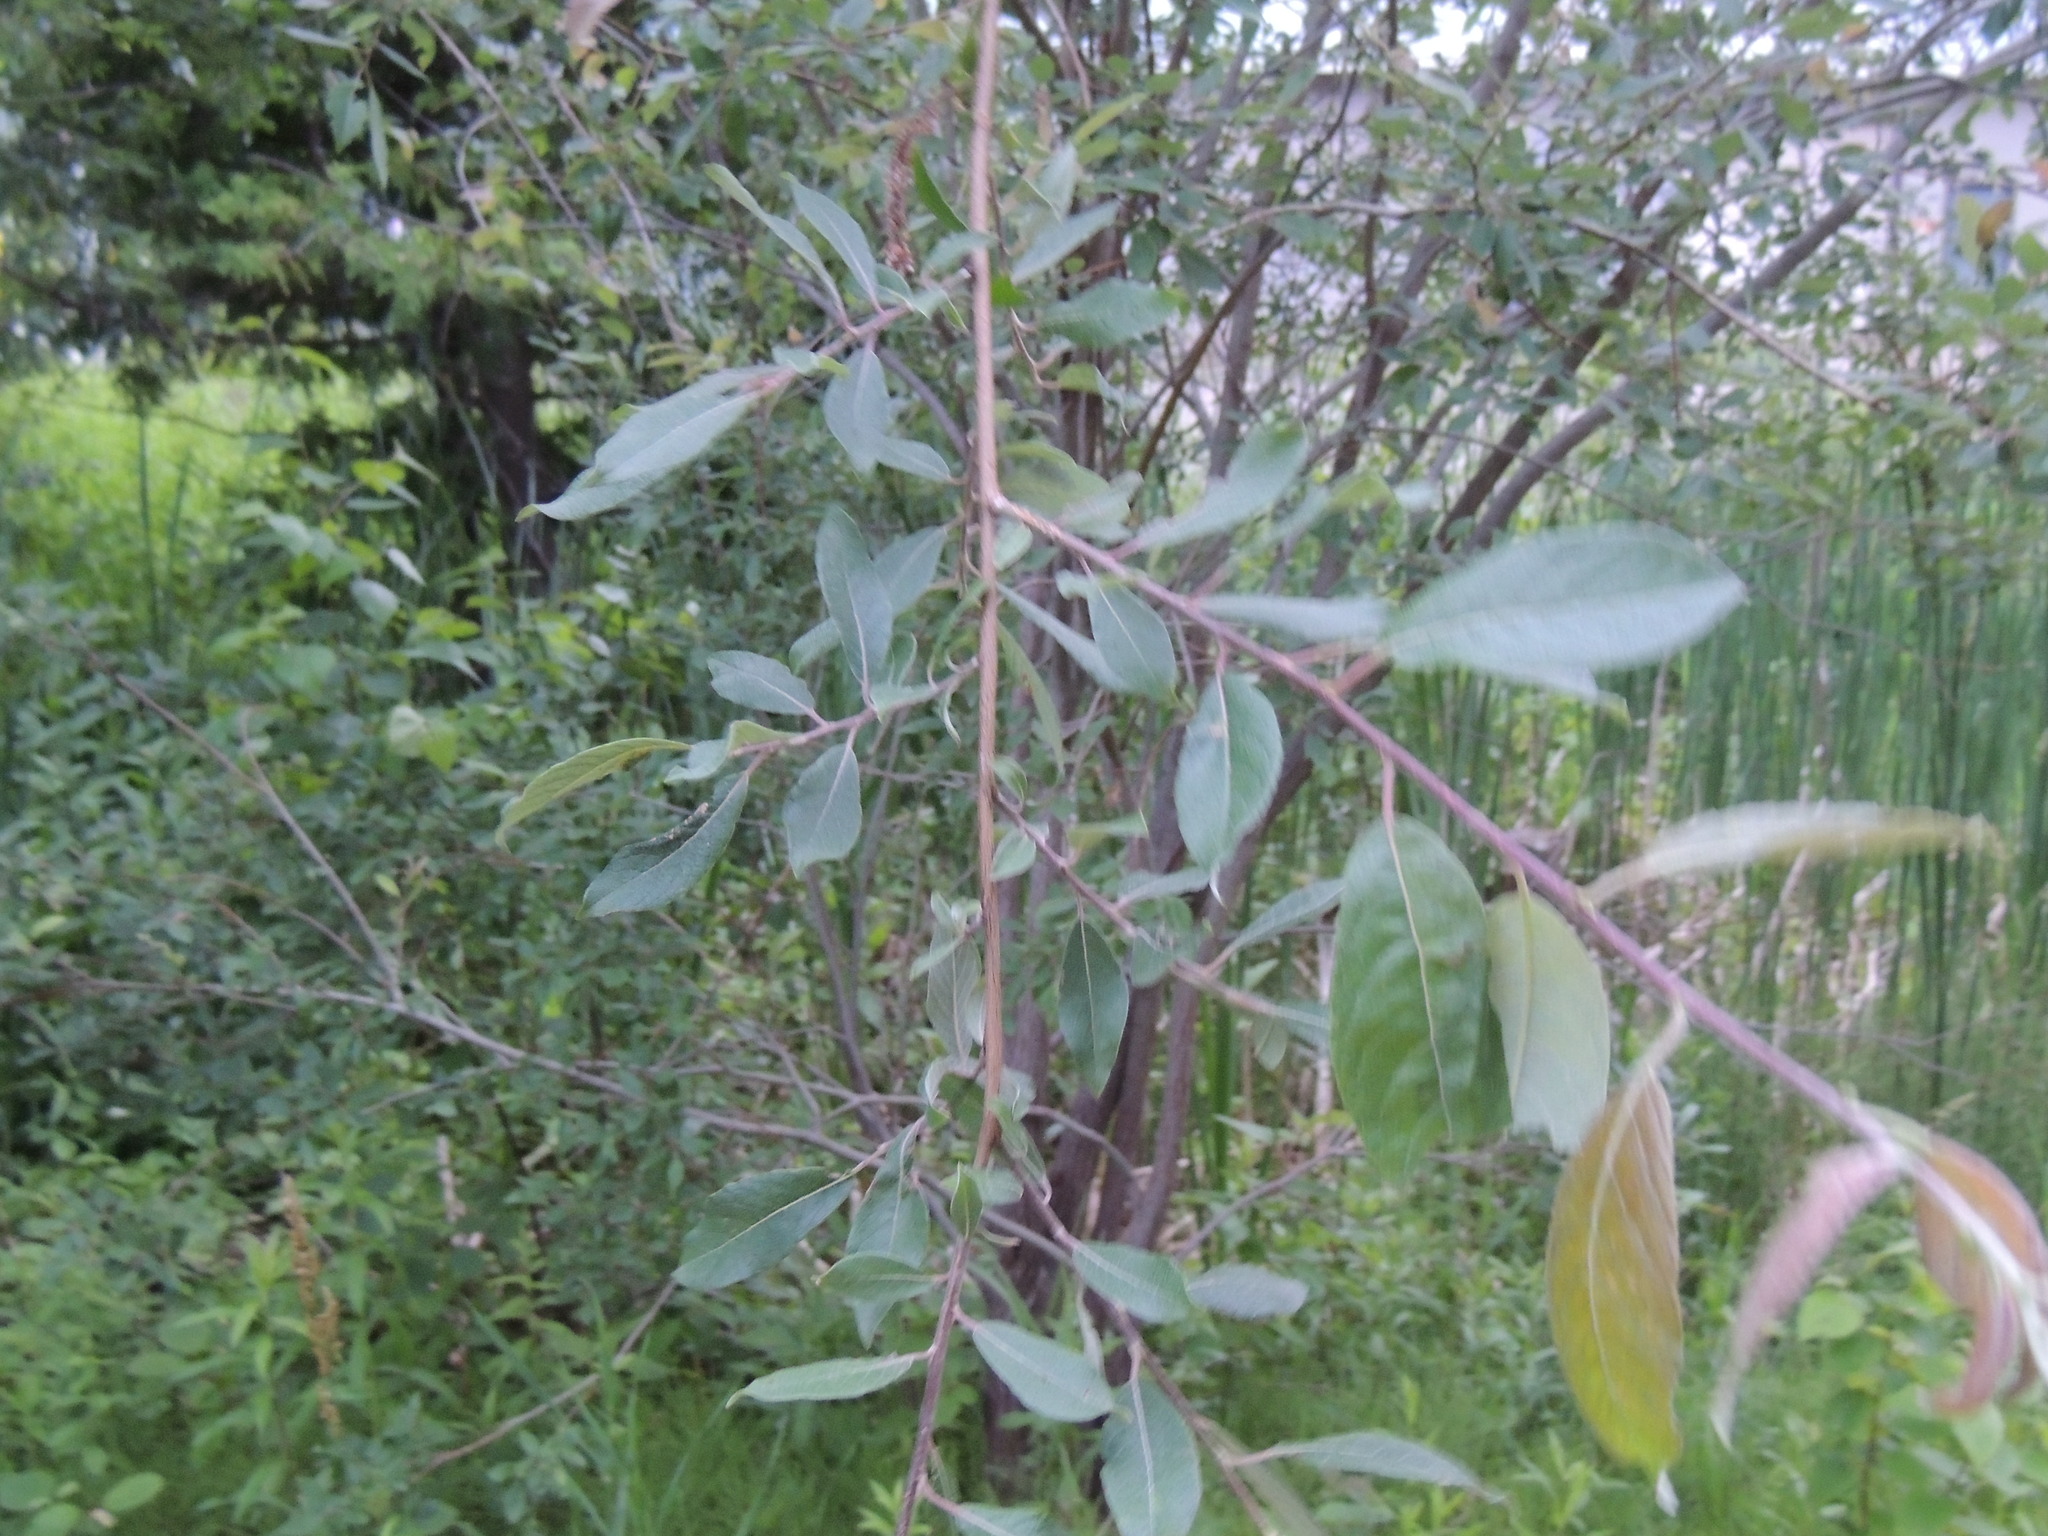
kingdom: Plantae
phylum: Tracheophyta
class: Magnoliopsida
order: Malpighiales
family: Salicaceae
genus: Salix
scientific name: Salix bebbiana
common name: Bebb's willow
